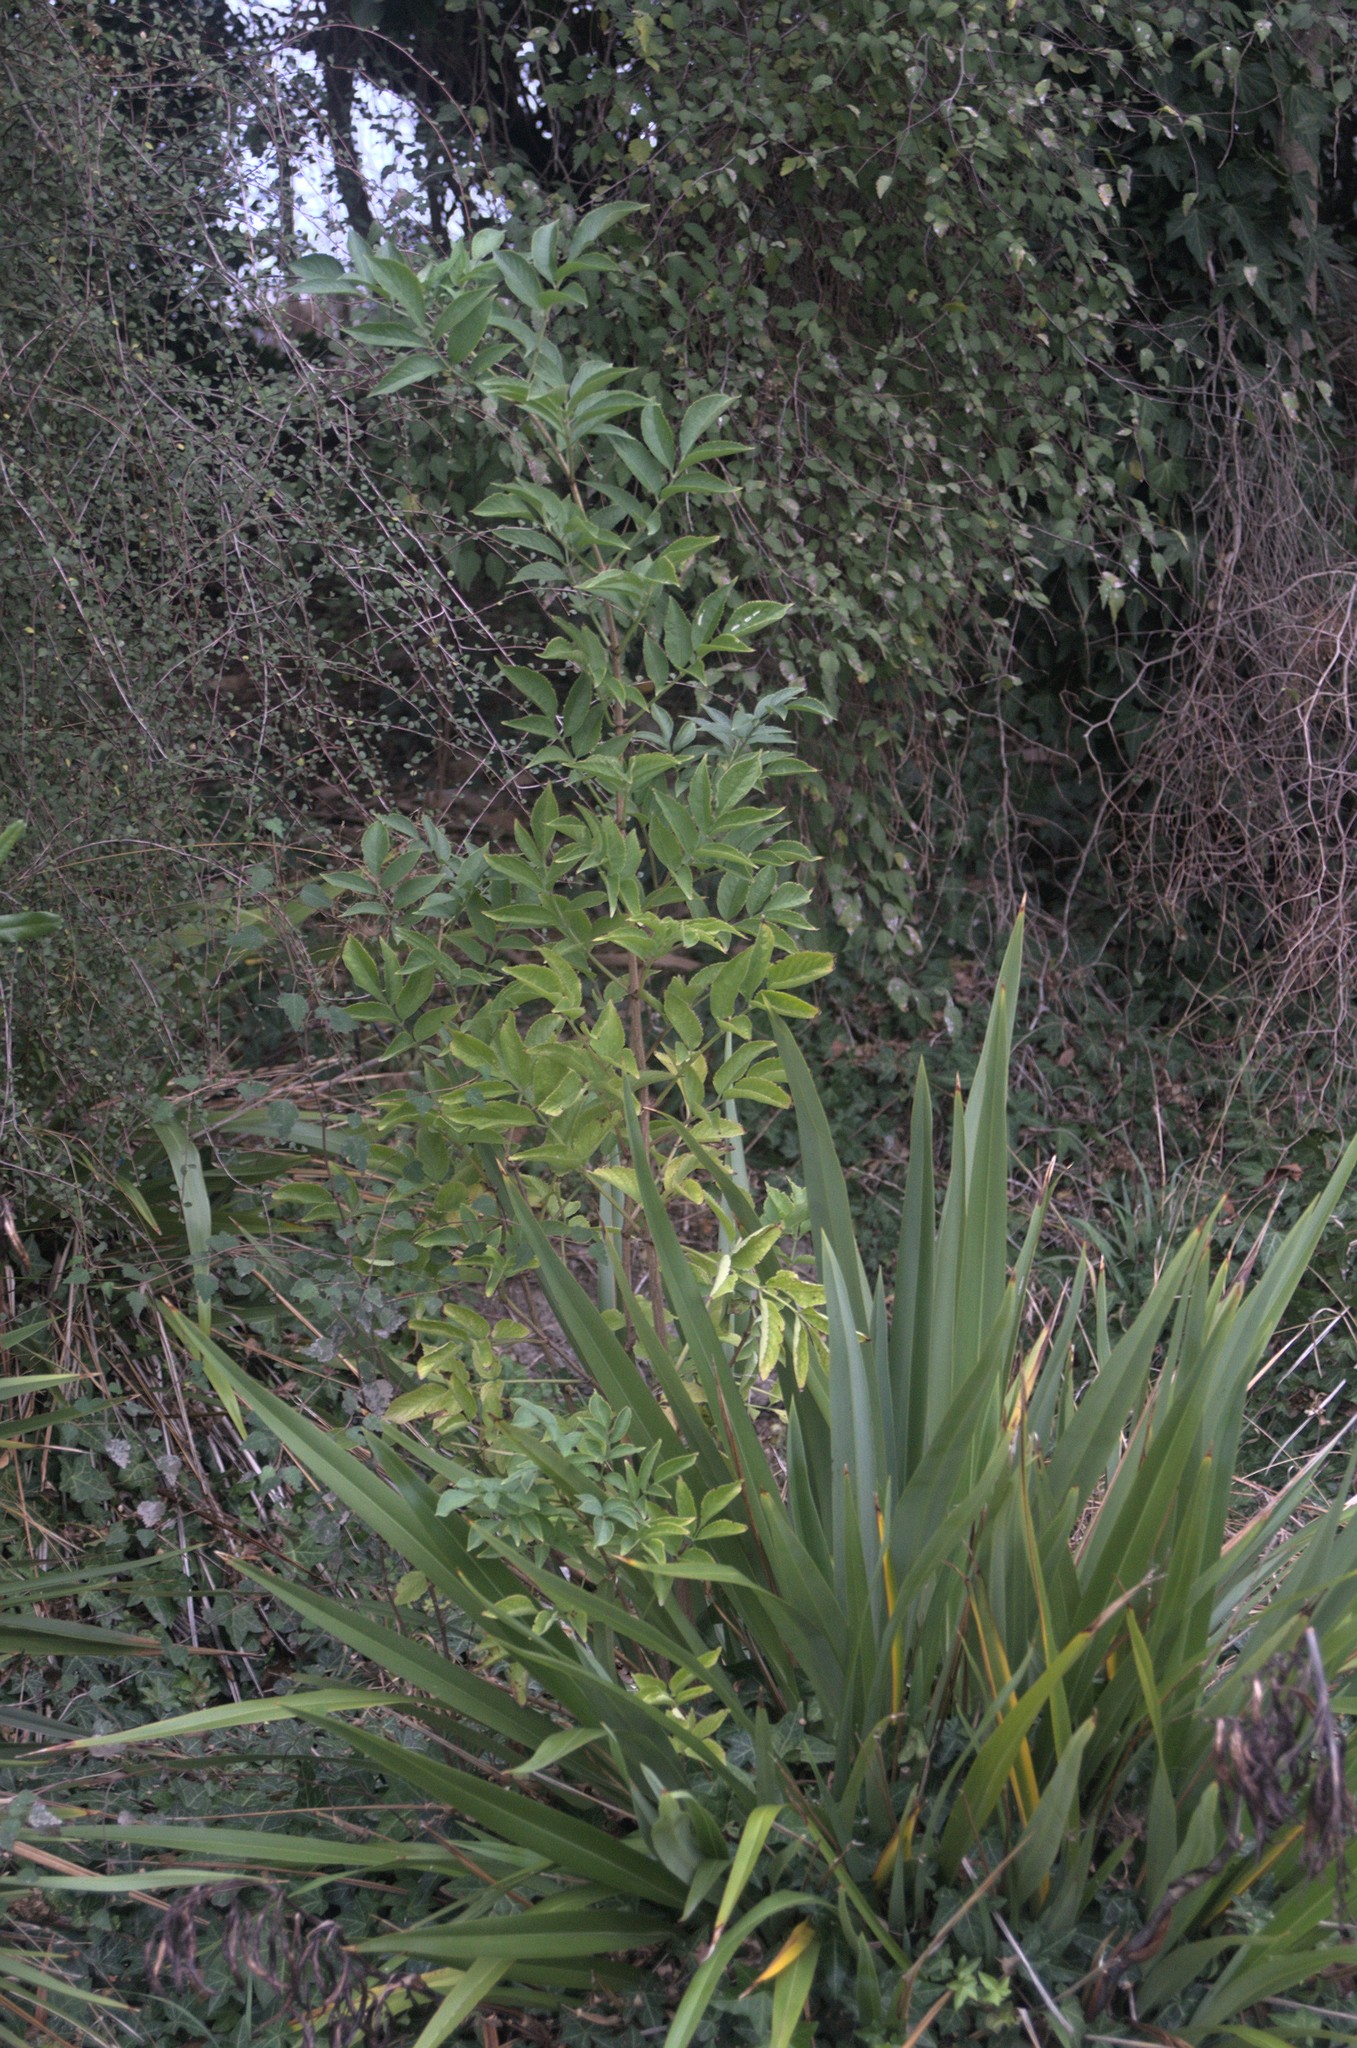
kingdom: Plantae
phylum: Tracheophyta
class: Magnoliopsida
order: Dipsacales
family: Viburnaceae
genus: Sambucus
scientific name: Sambucus nigra
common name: Elder
